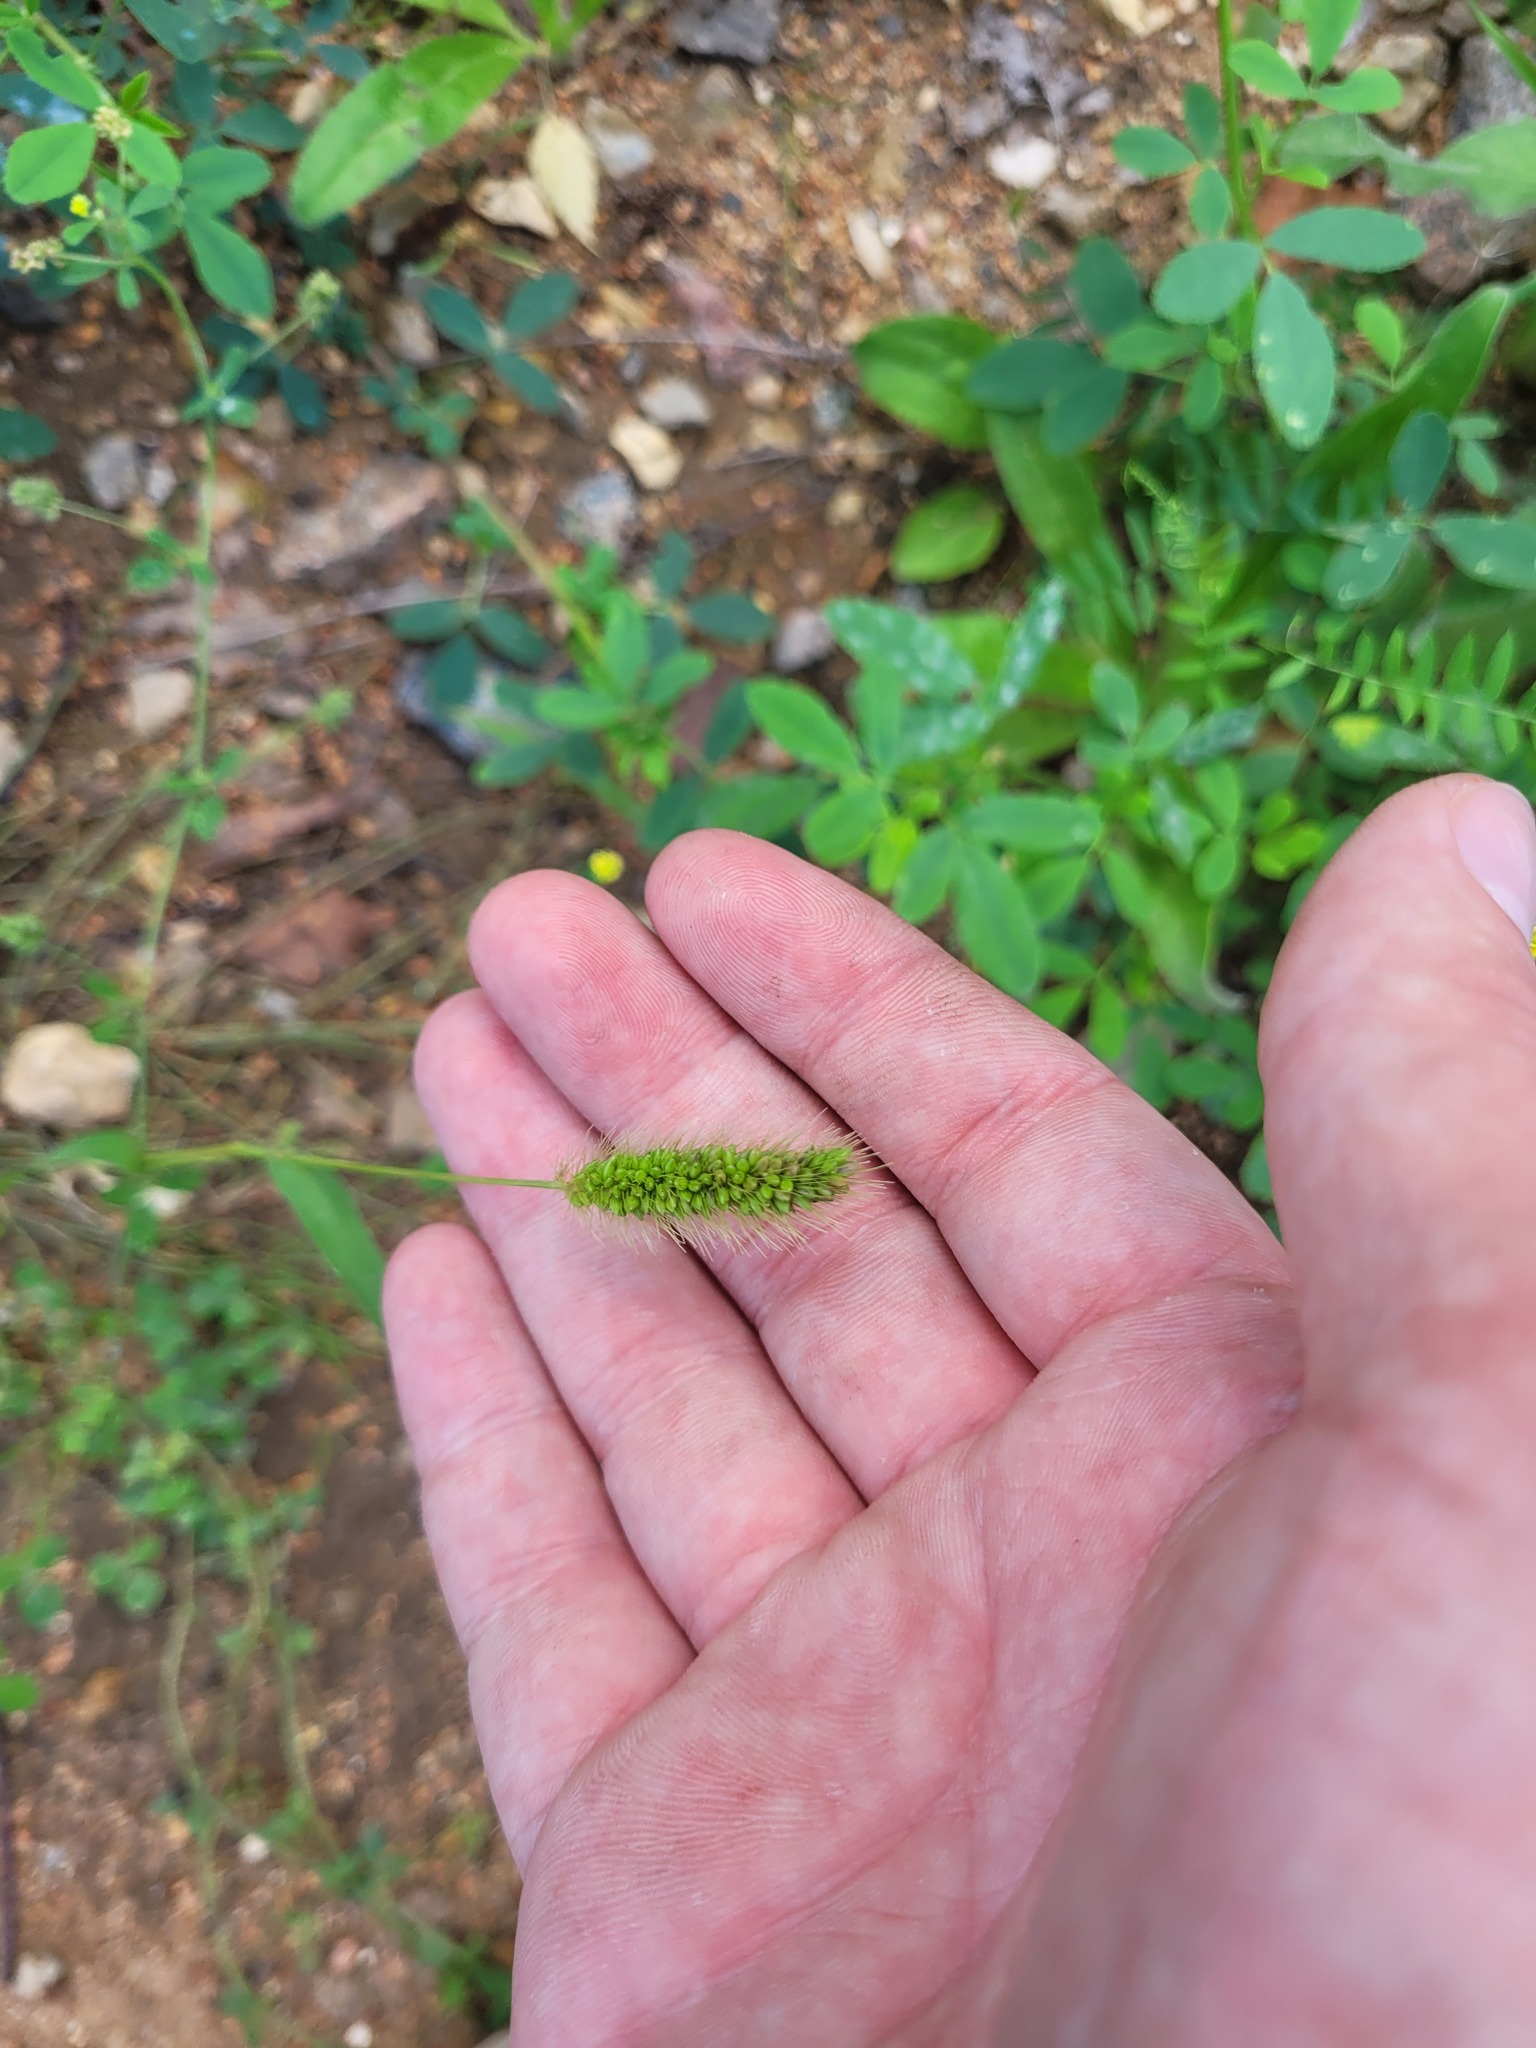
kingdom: Plantae
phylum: Tracheophyta
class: Liliopsida
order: Poales
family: Poaceae
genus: Setaria
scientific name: Setaria viridis
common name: Green bristlegrass
